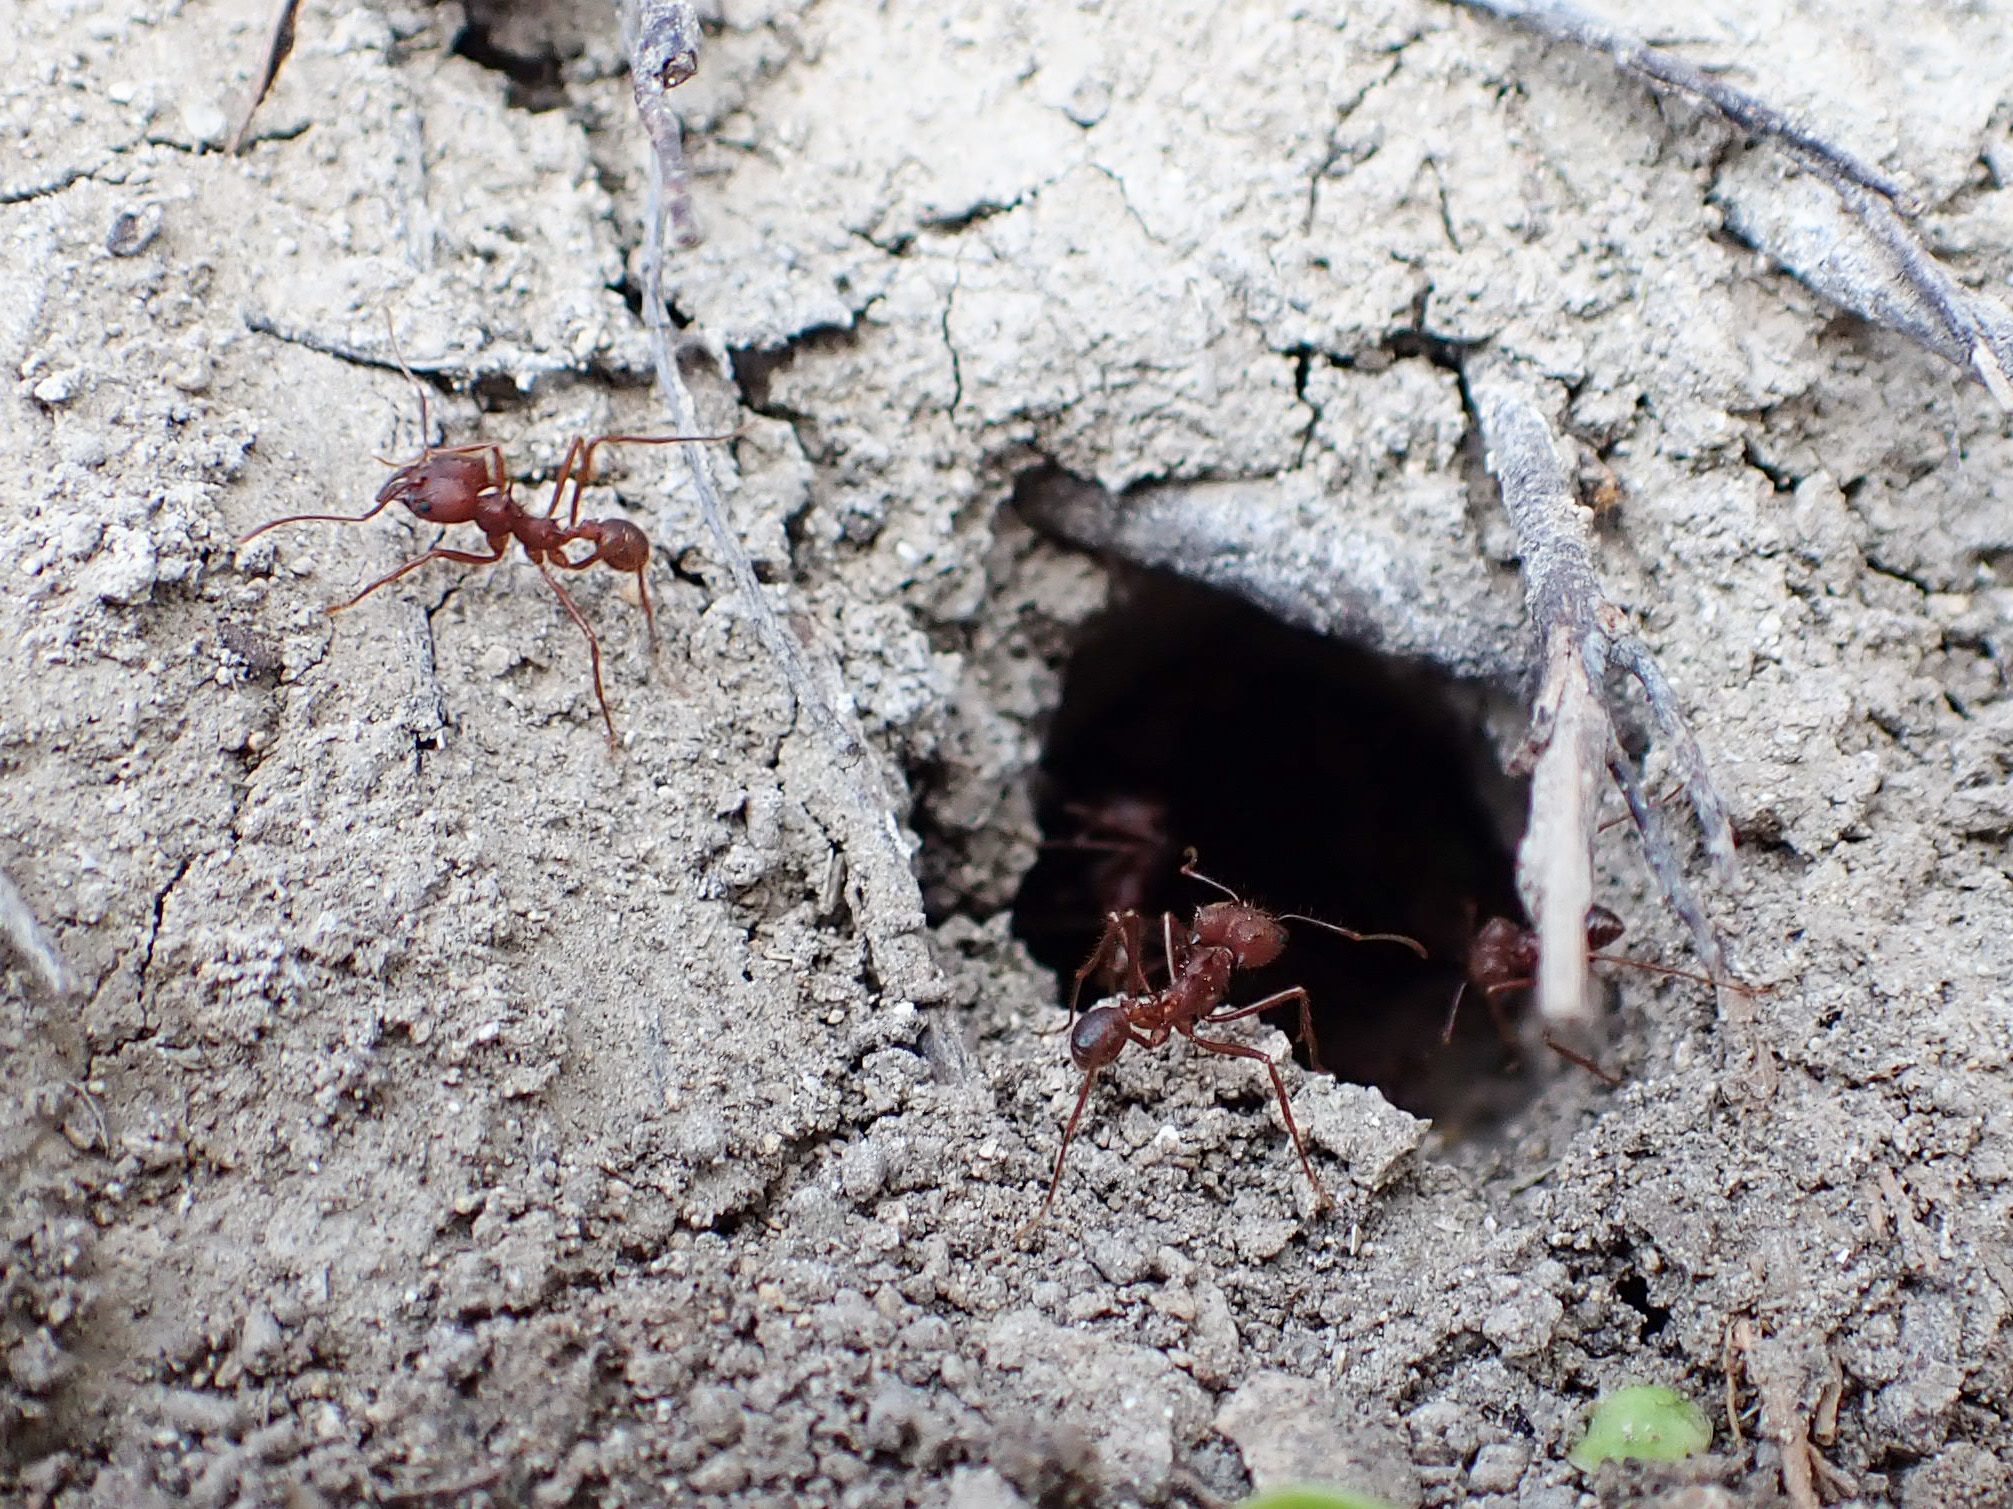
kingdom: Animalia
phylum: Arthropoda
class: Insecta
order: Hymenoptera
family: Formicidae
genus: Atta
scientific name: Atta texana
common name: Texas leafcutting ant
